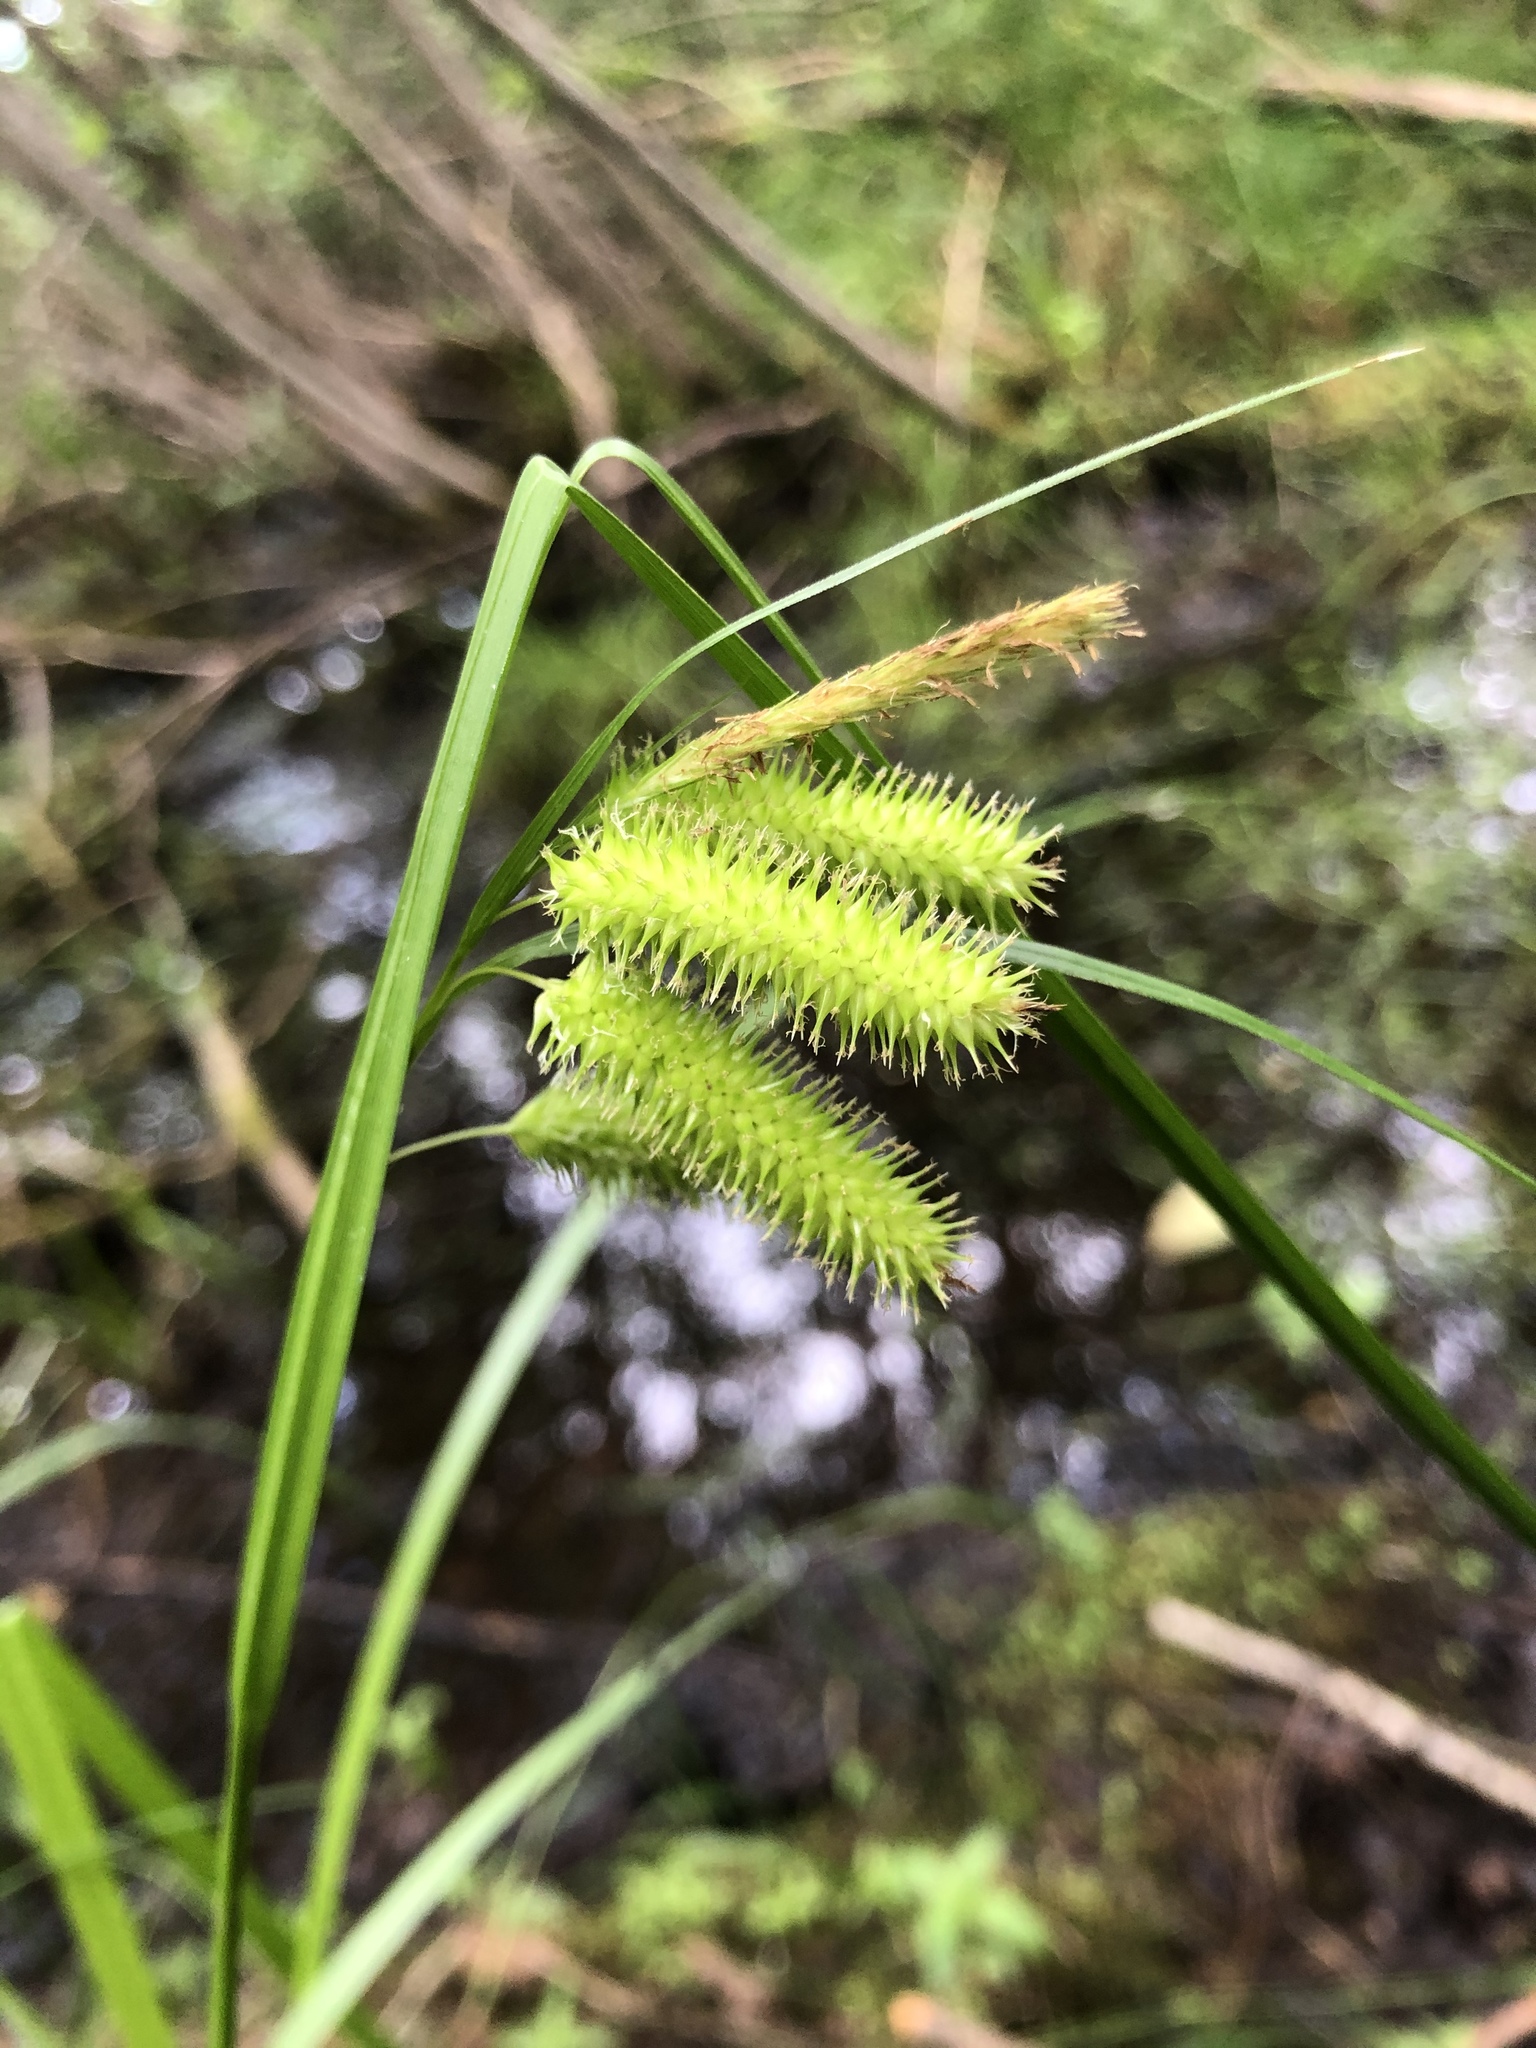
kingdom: Plantae
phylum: Tracheophyta
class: Liliopsida
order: Poales
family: Cyperaceae
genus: Carex
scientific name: Carex pseudocyperus
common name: Cyperus sedge
